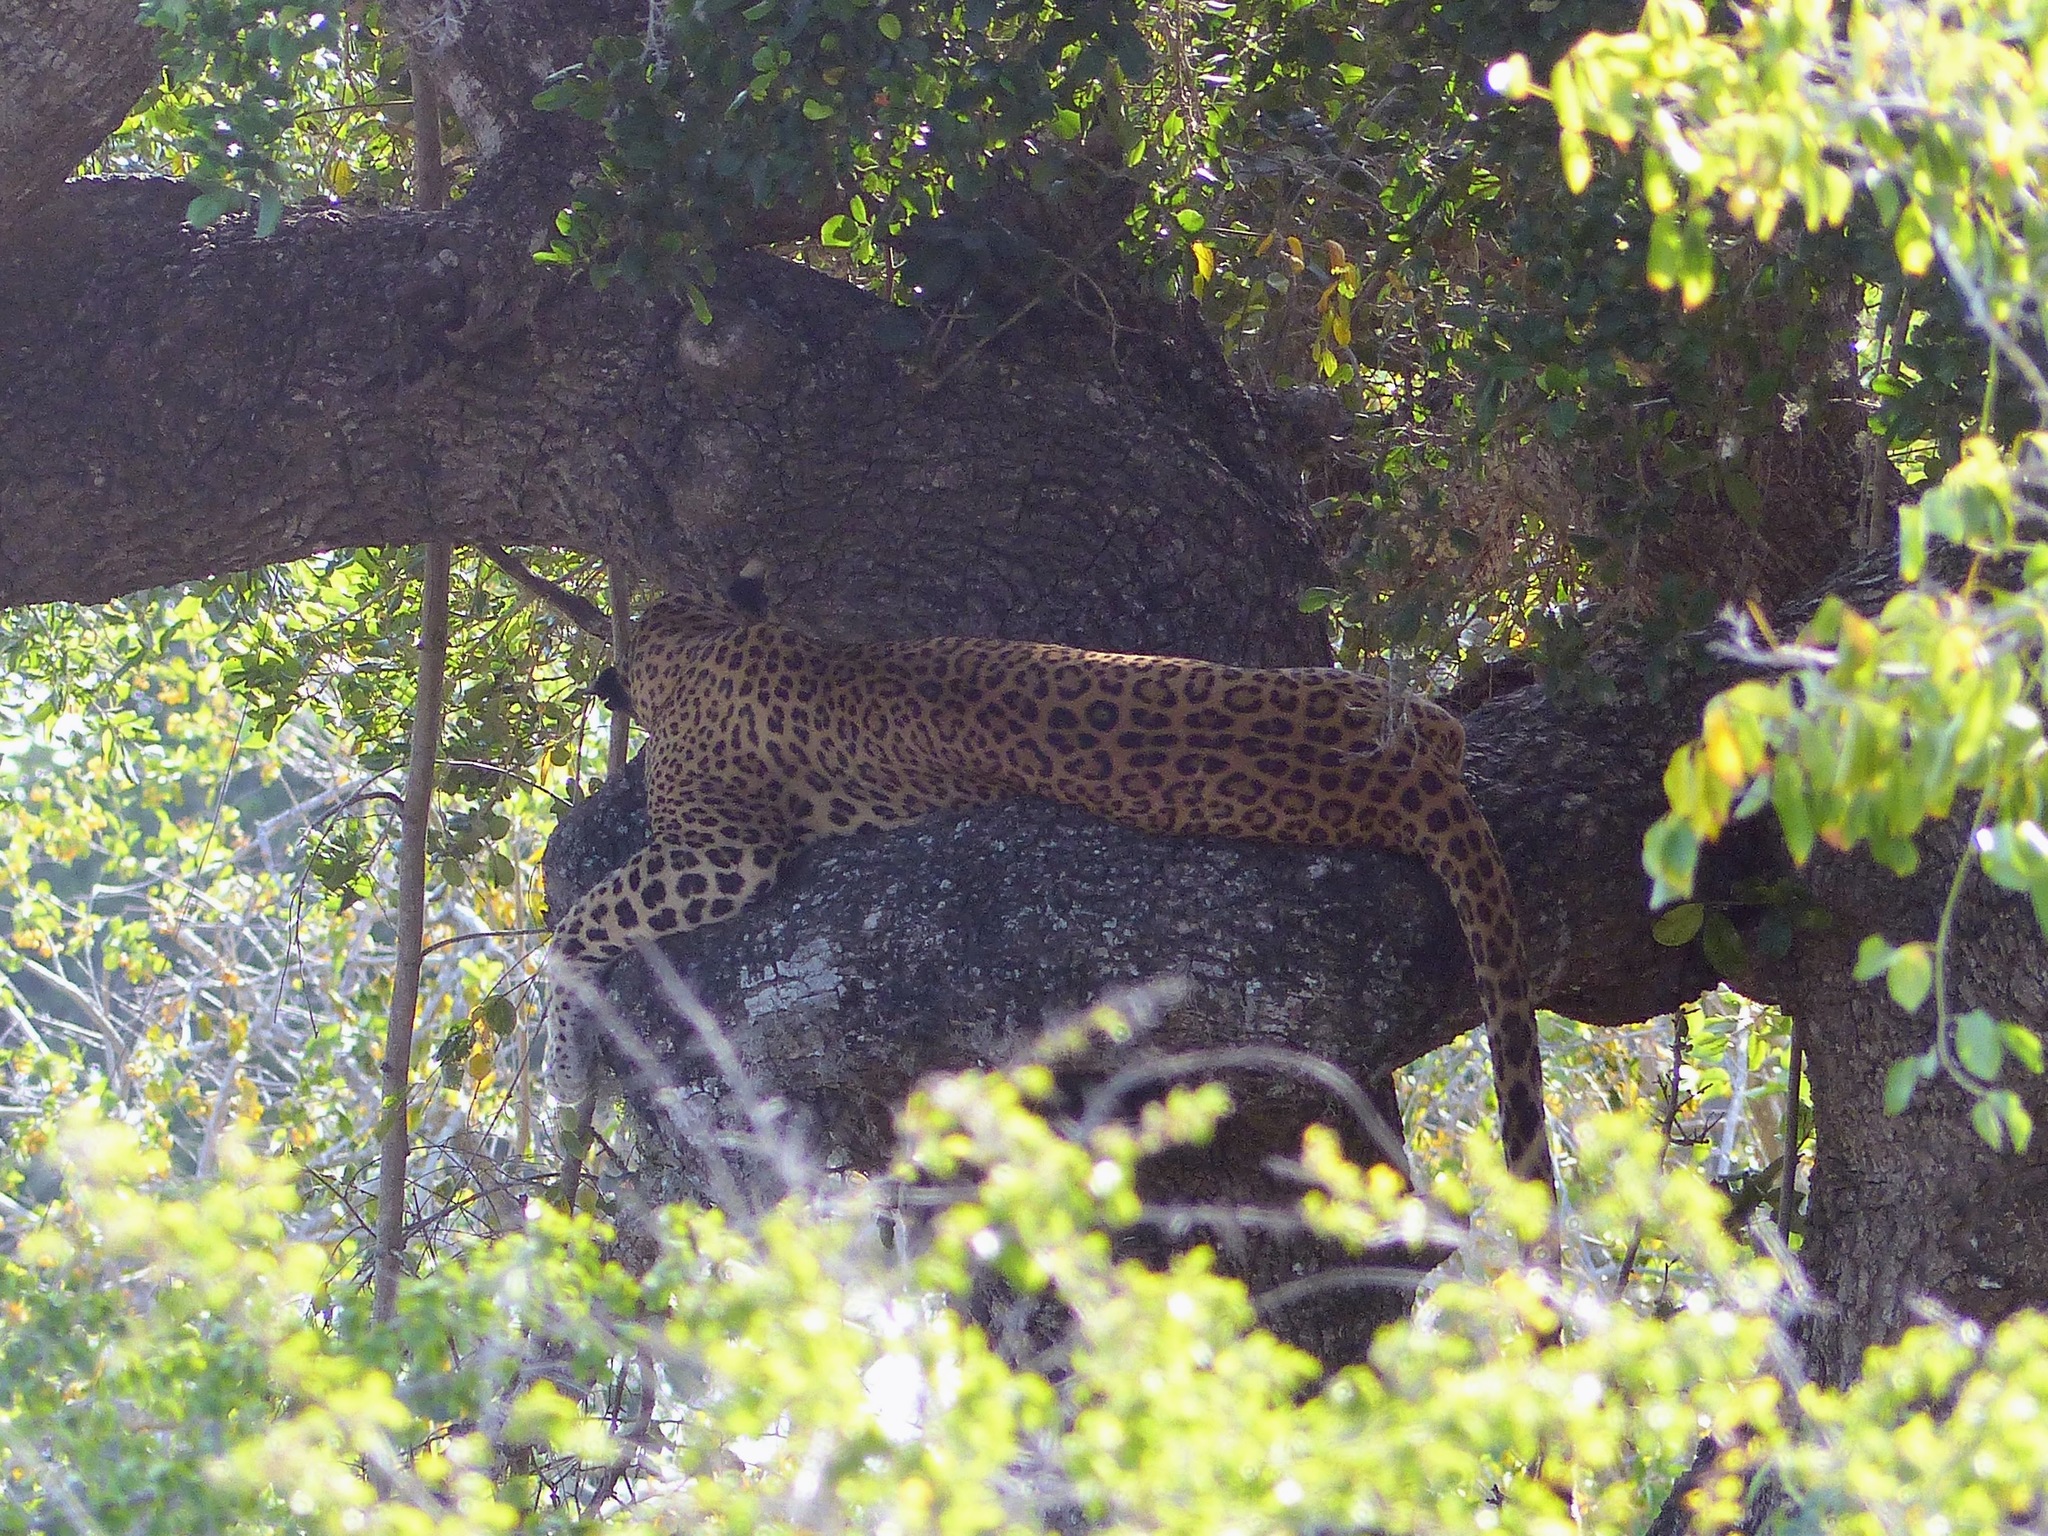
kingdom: Animalia
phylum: Chordata
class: Mammalia
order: Carnivora
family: Felidae
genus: Panthera
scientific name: Panthera pardus
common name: Leopard
